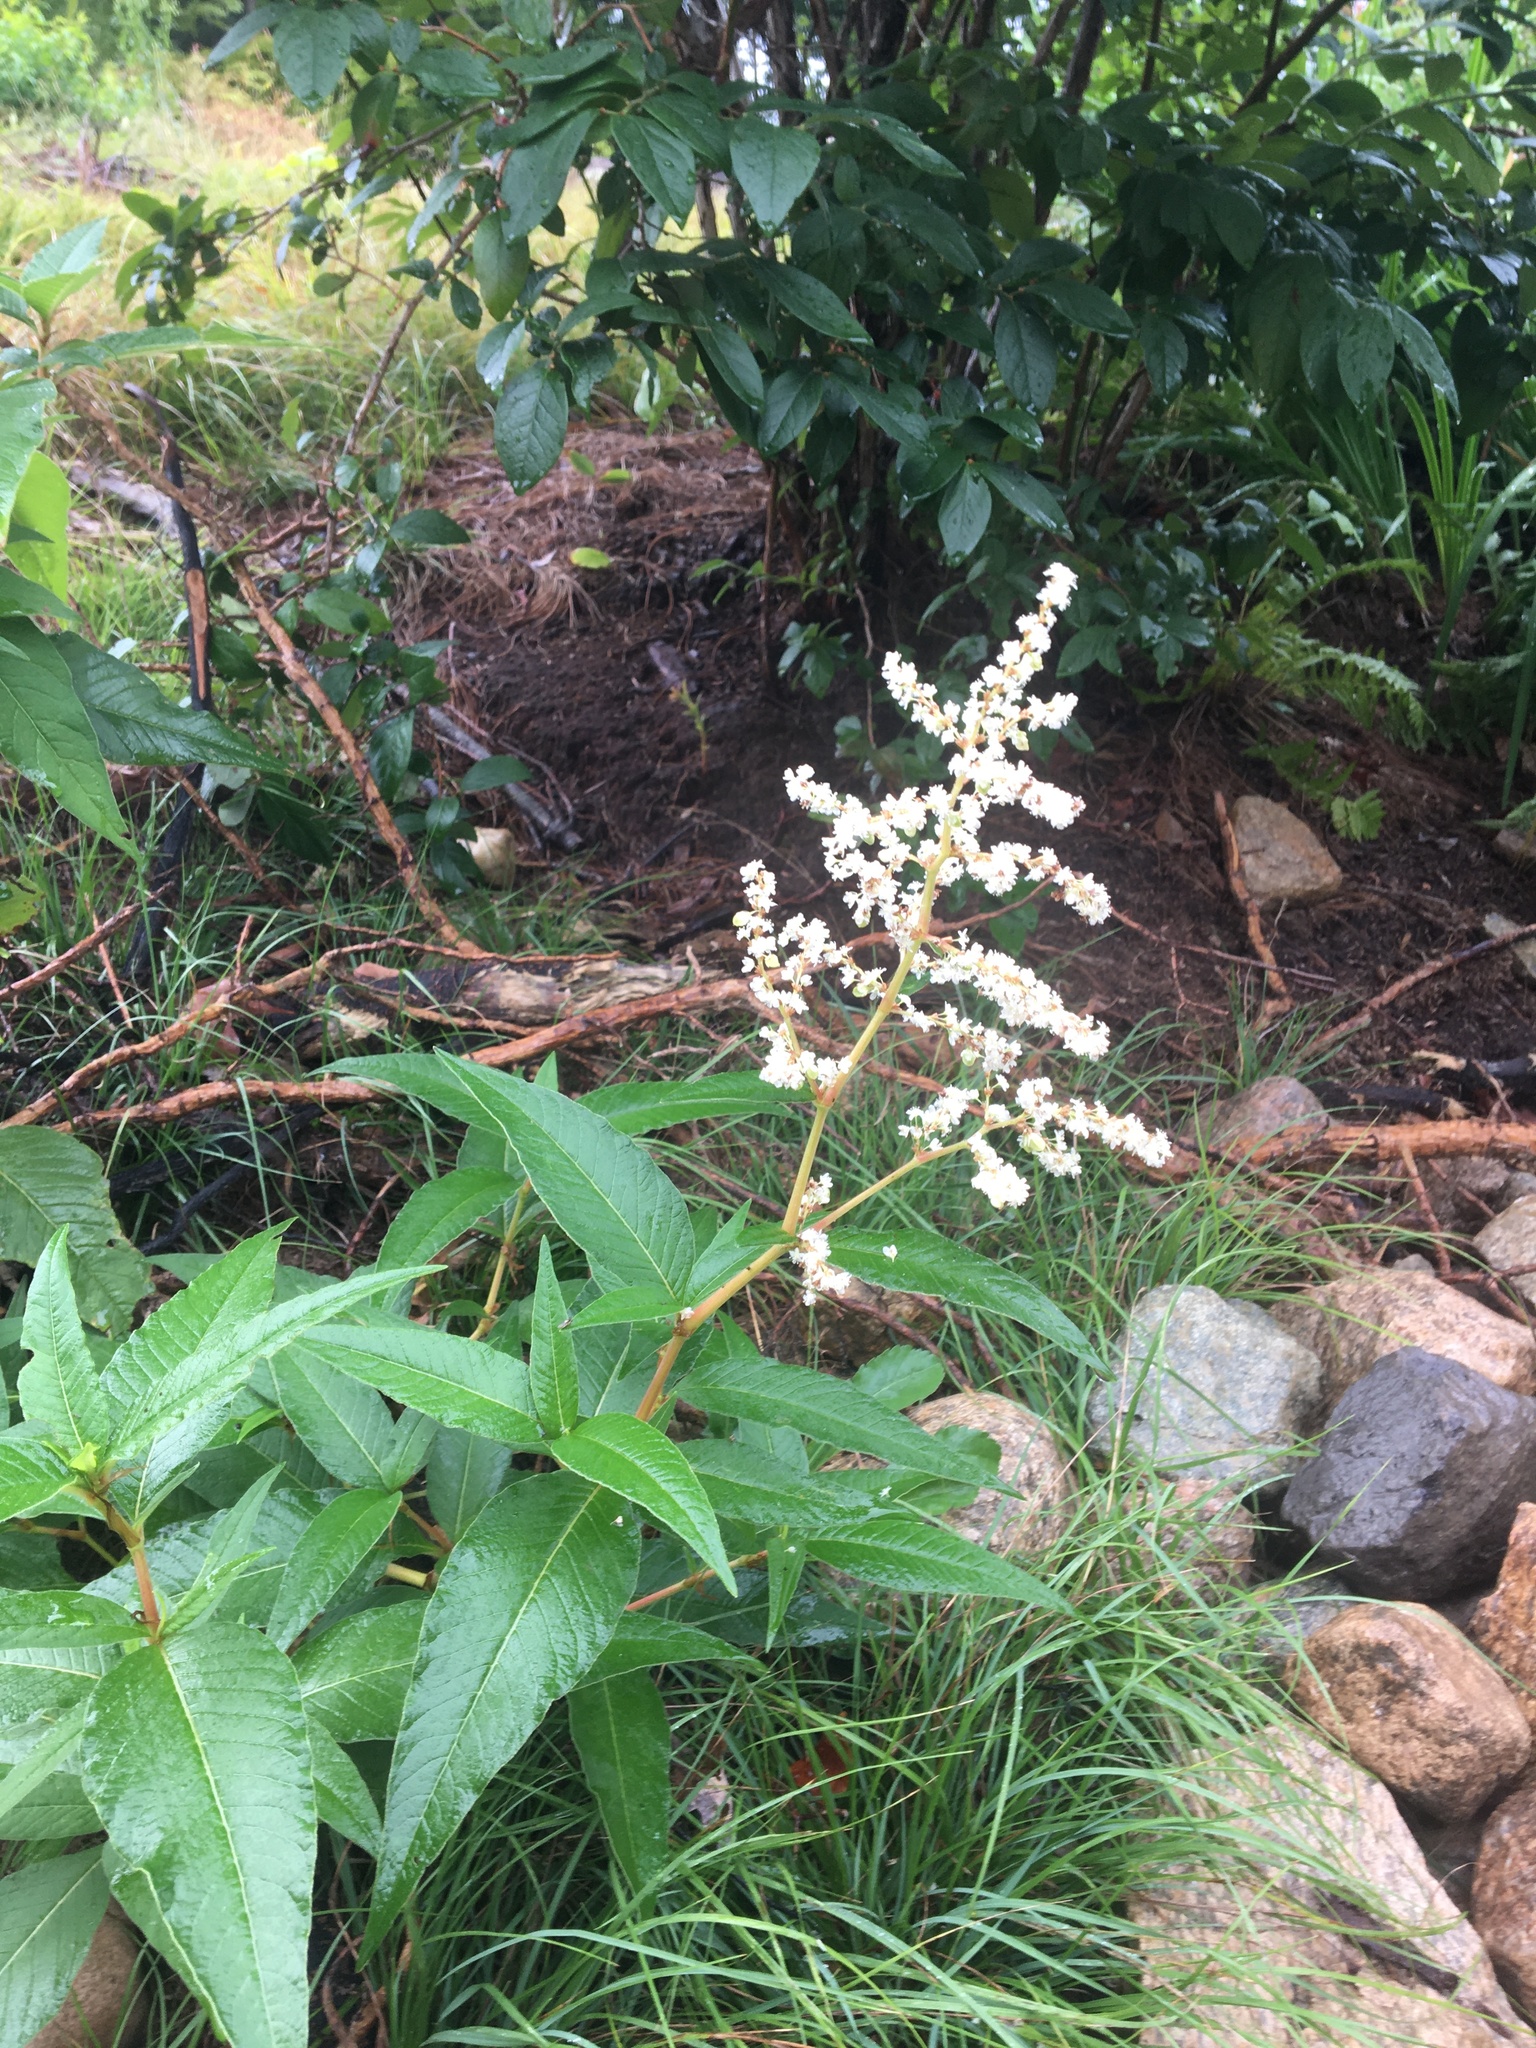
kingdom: Plantae
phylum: Tracheophyta
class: Magnoliopsida
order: Caryophyllales
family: Polygonaceae
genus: Koenigia
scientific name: Koenigia polystachya
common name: Himalayan knotweed
